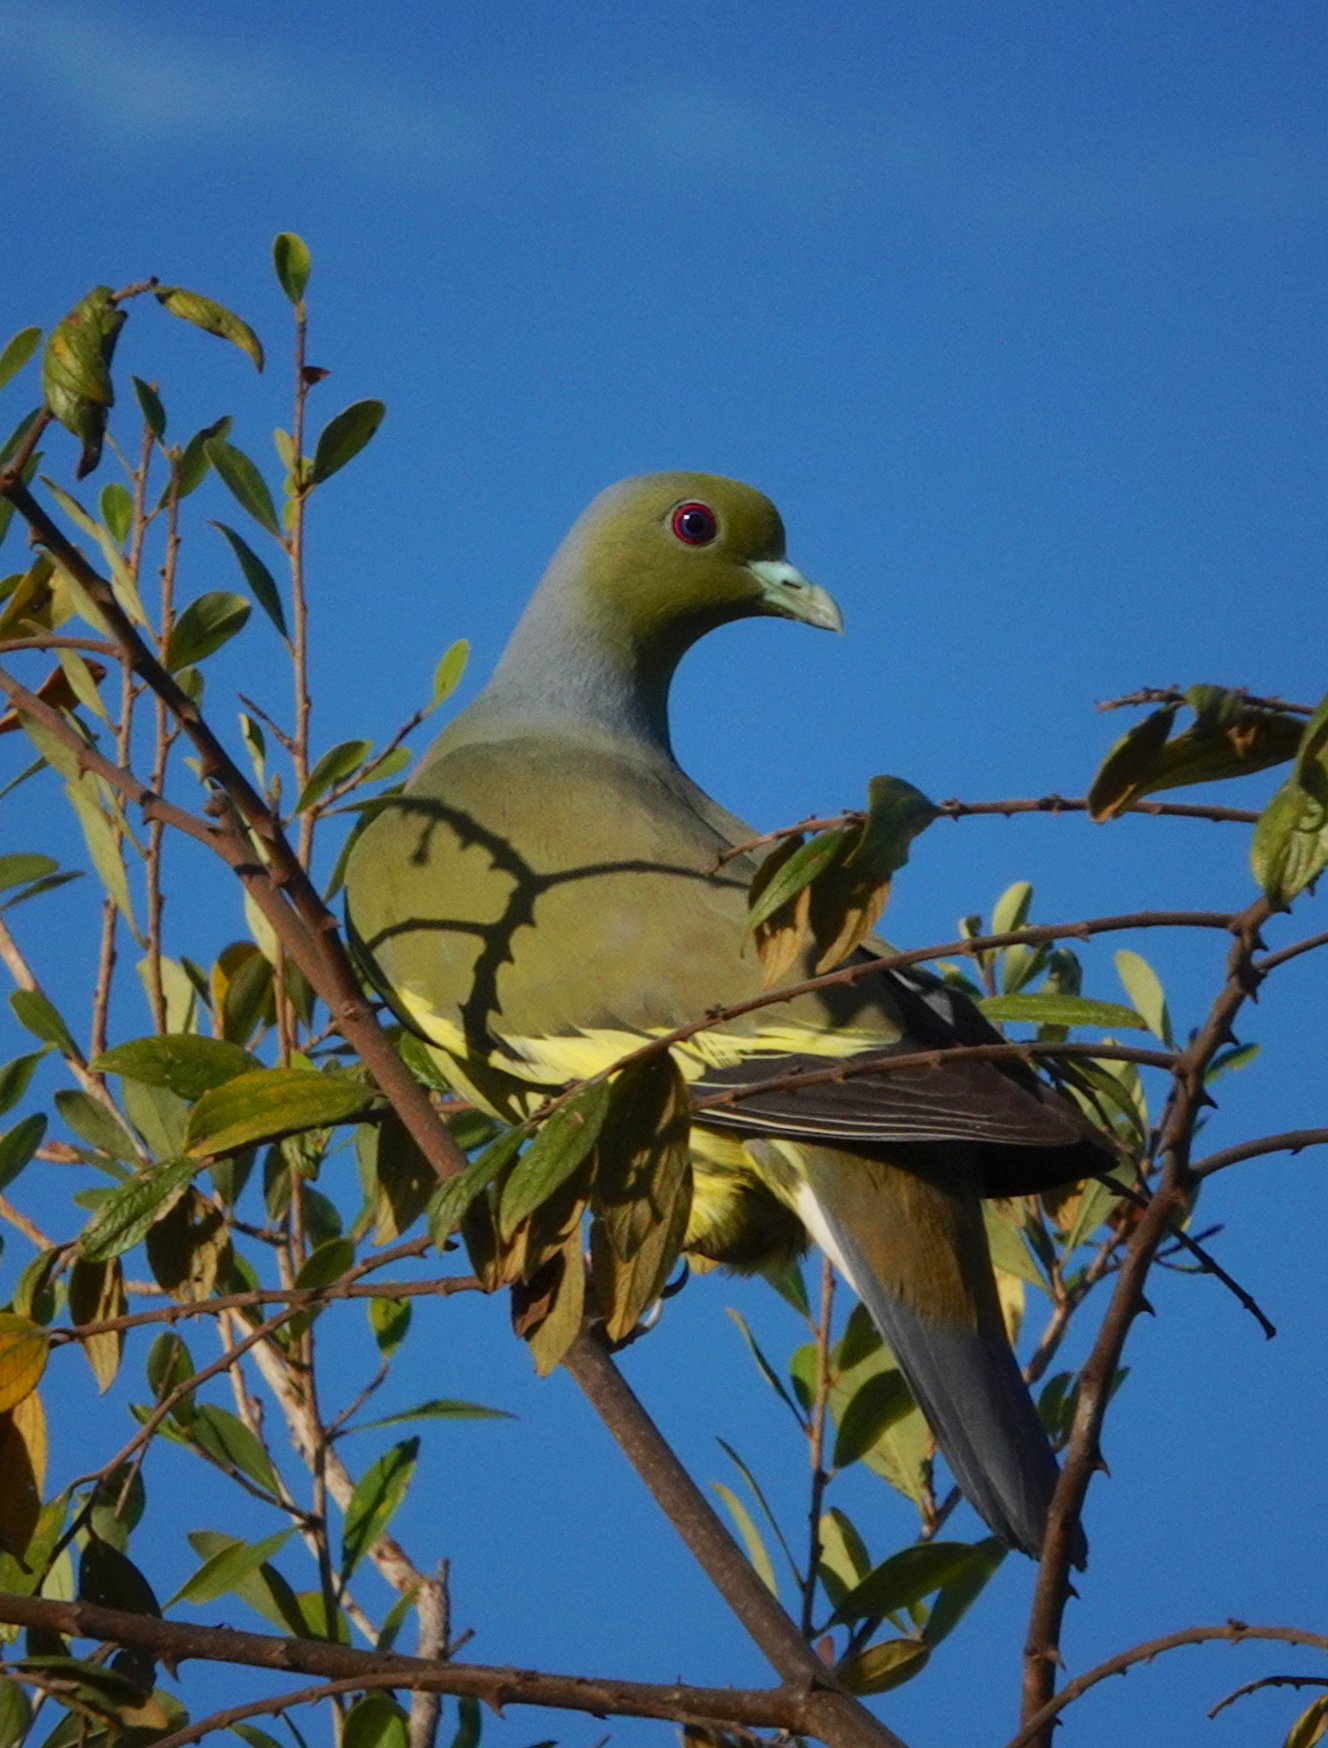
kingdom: Animalia
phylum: Chordata
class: Aves
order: Columbiformes
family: Columbidae
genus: Treron
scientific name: Treron bicinctus
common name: Orange-breasted green pigeon
